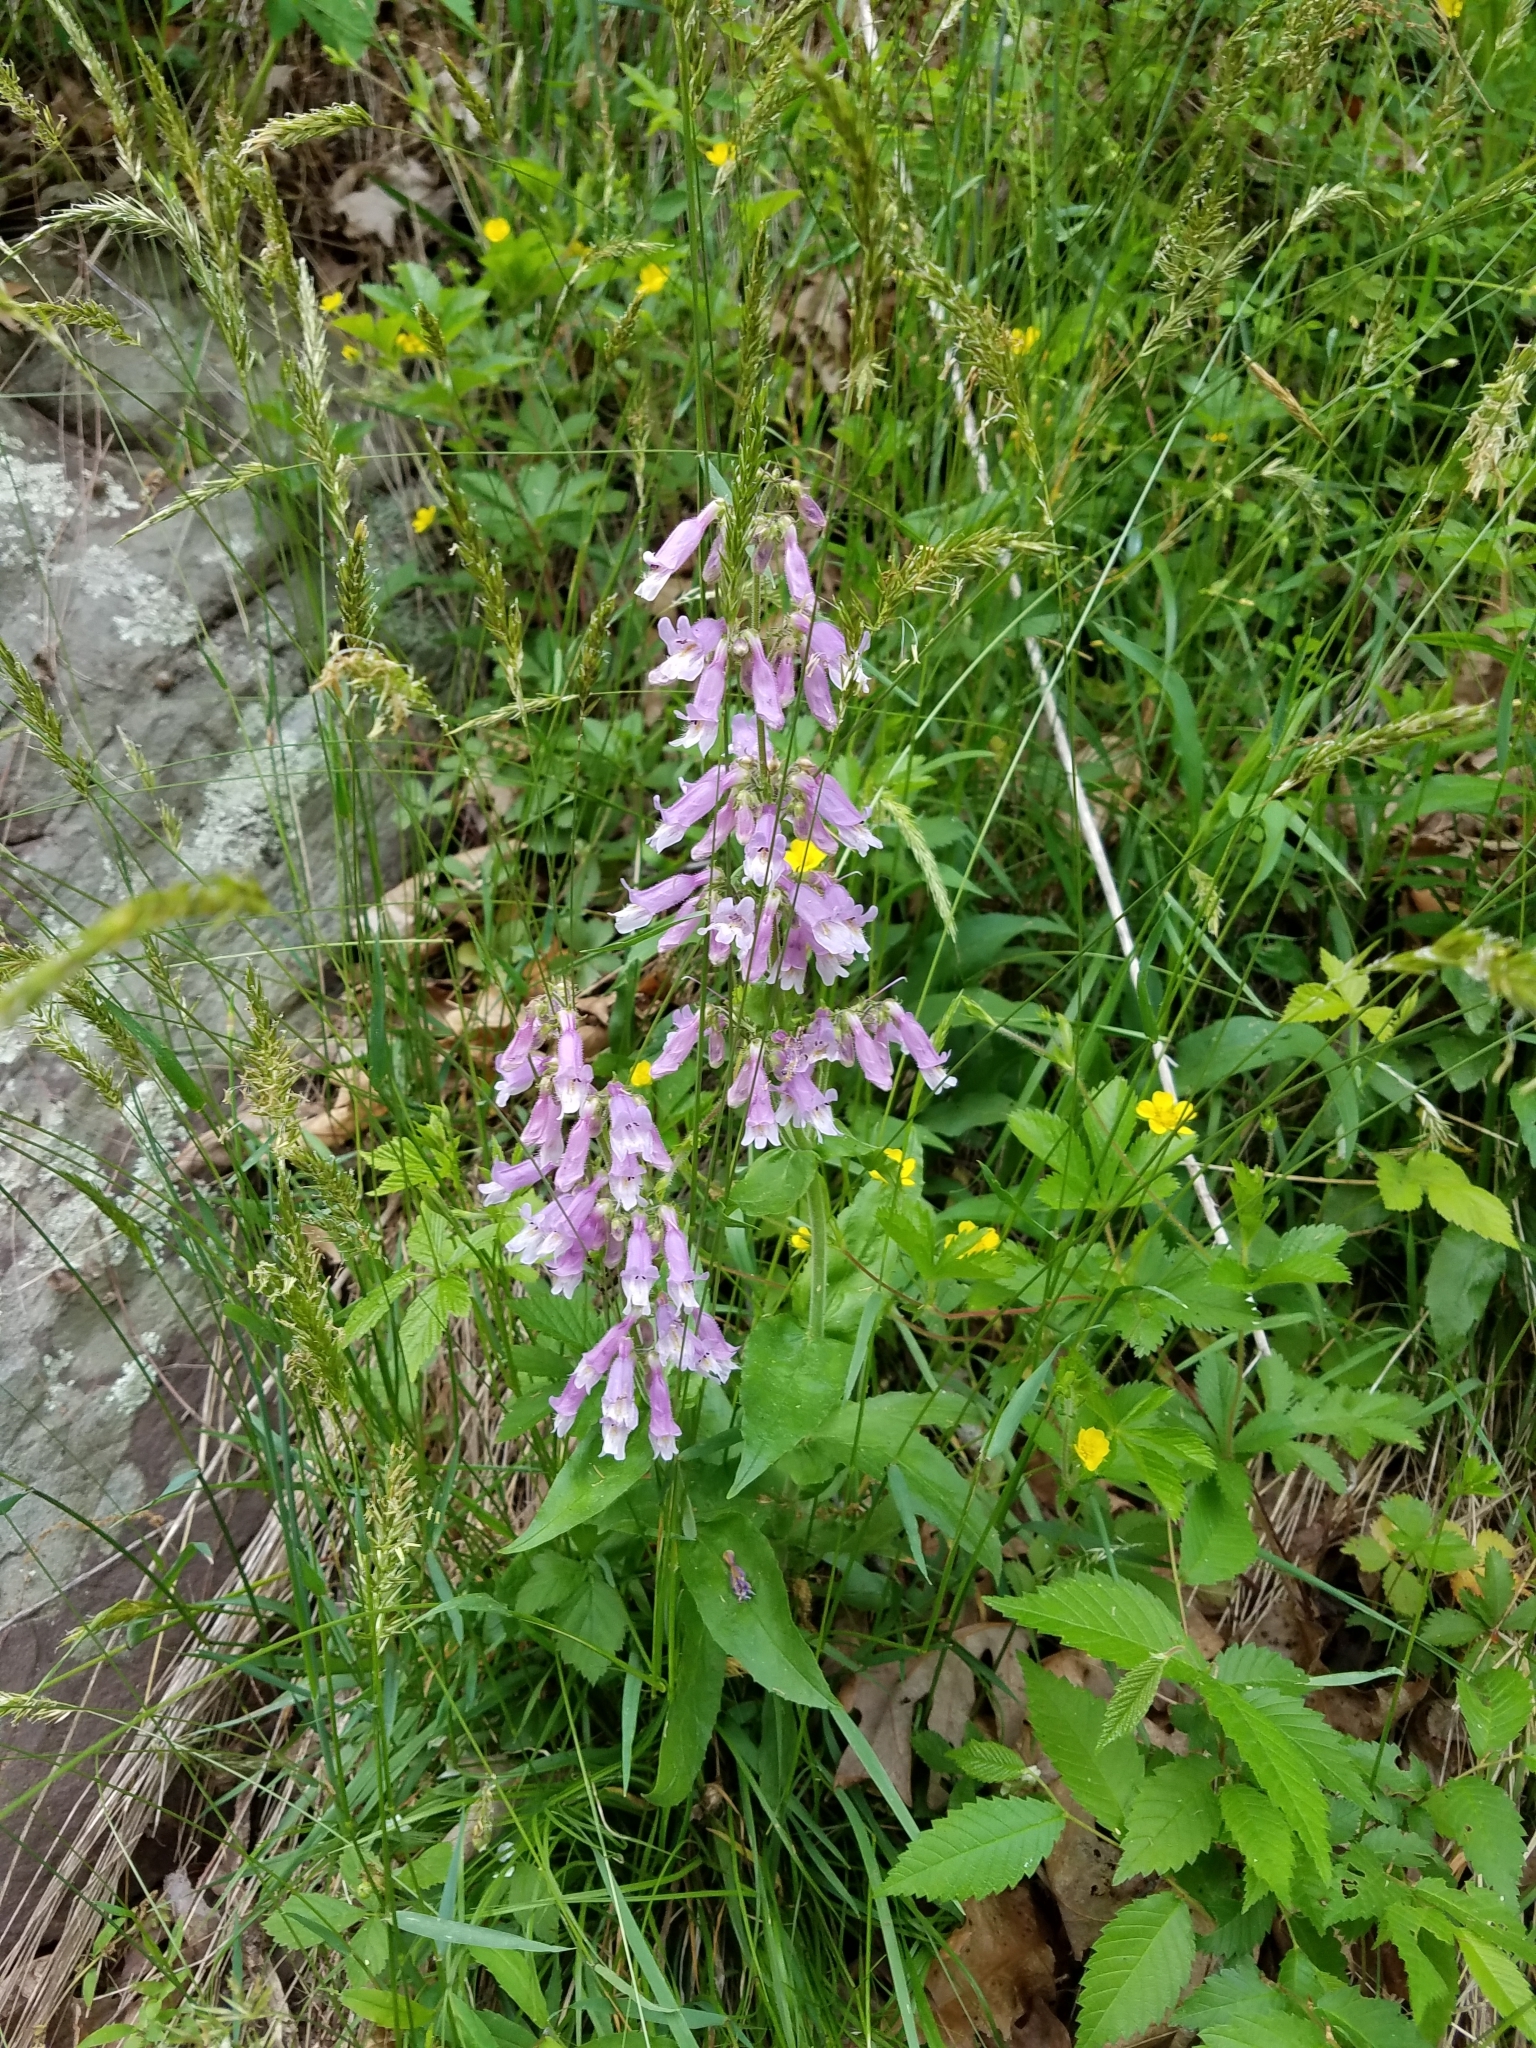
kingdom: Plantae
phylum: Tracheophyta
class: Magnoliopsida
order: Lamiales
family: Plantaginaceae
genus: Penstemon
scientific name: Penstemon canescens
